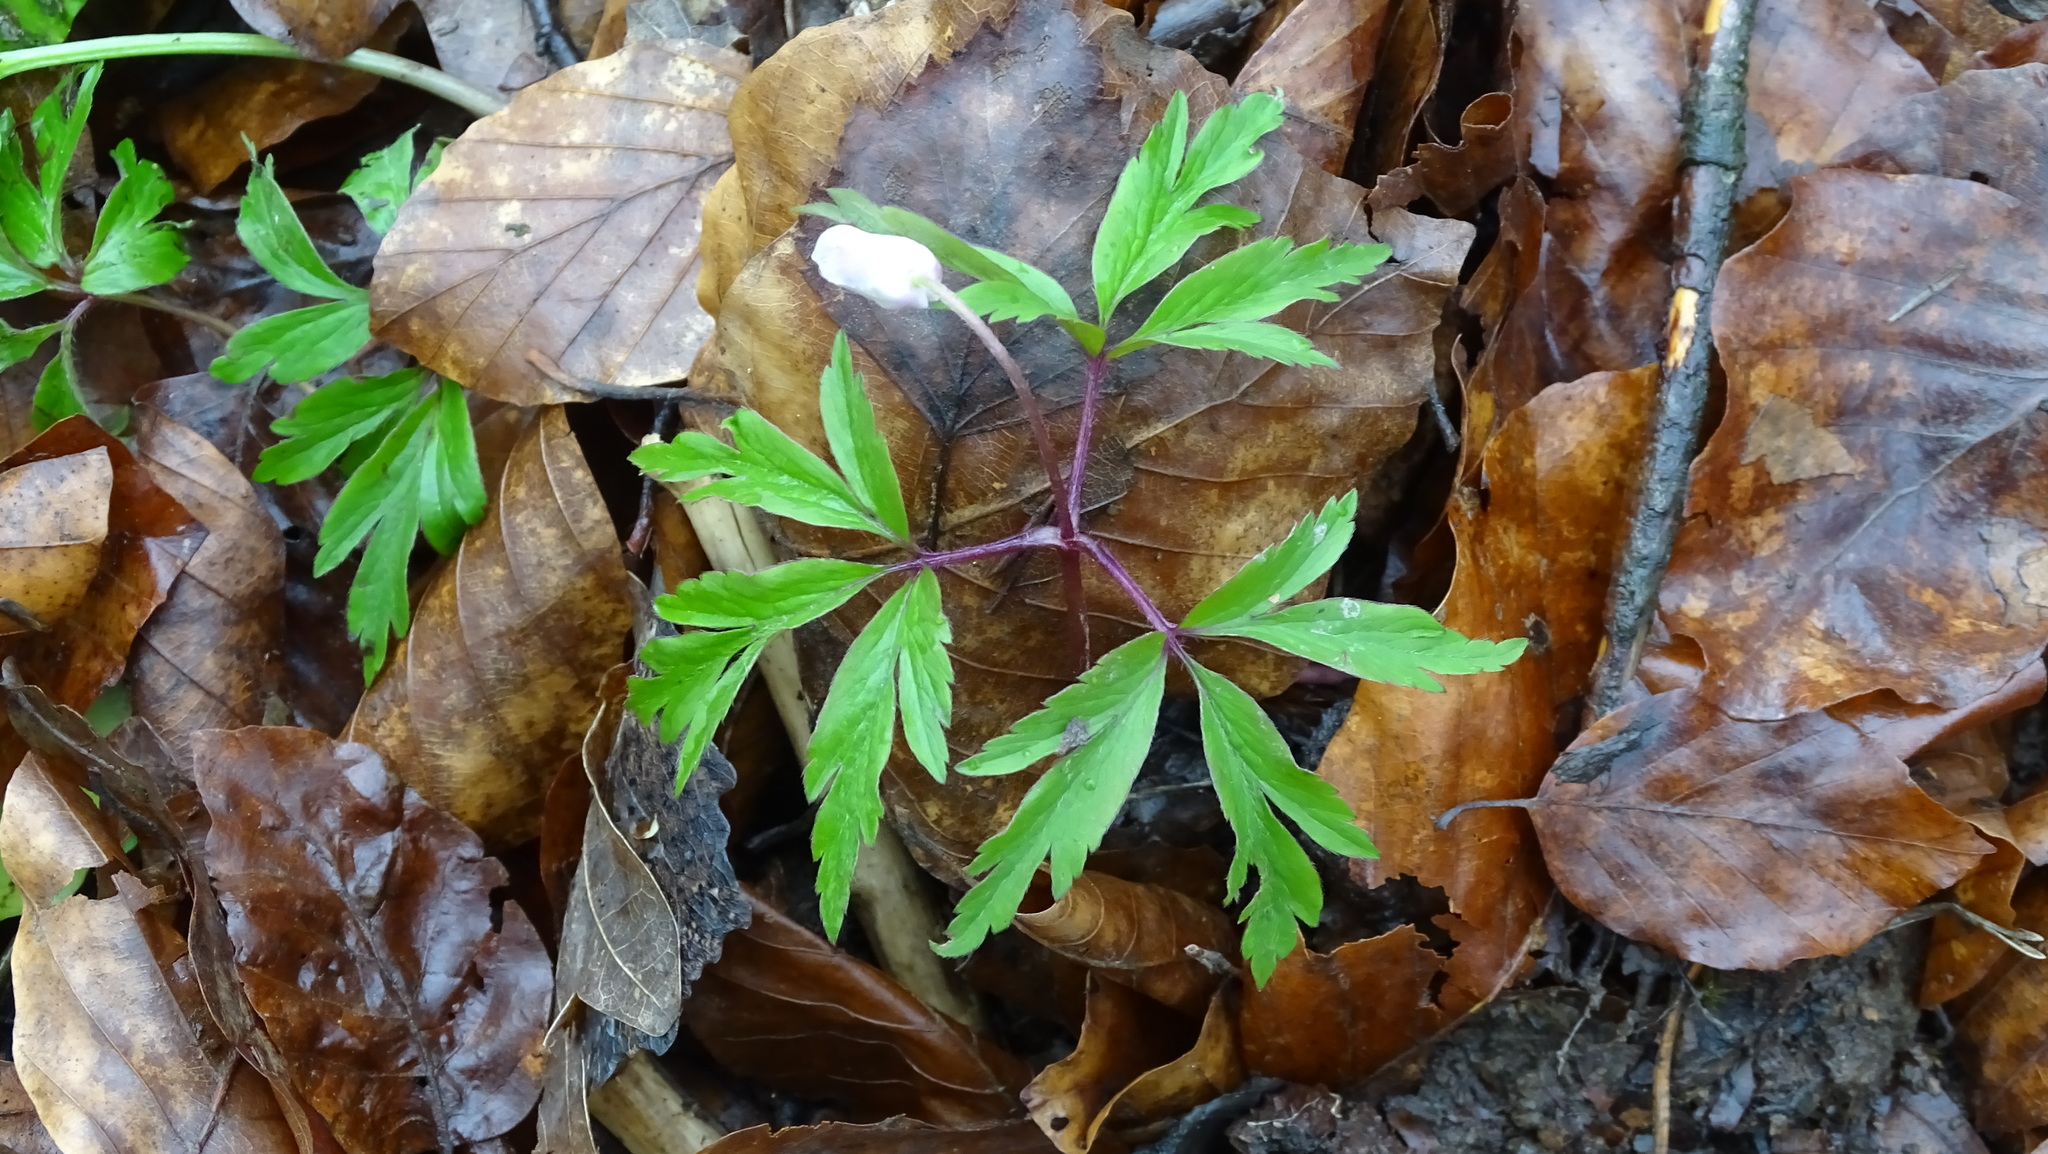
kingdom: Plantae
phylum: Tracheophyta
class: Magnoliopsida
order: Ranunculales
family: Ranunculaceae
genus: Anemone
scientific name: Anemone nemorosa
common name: Wood anemone
